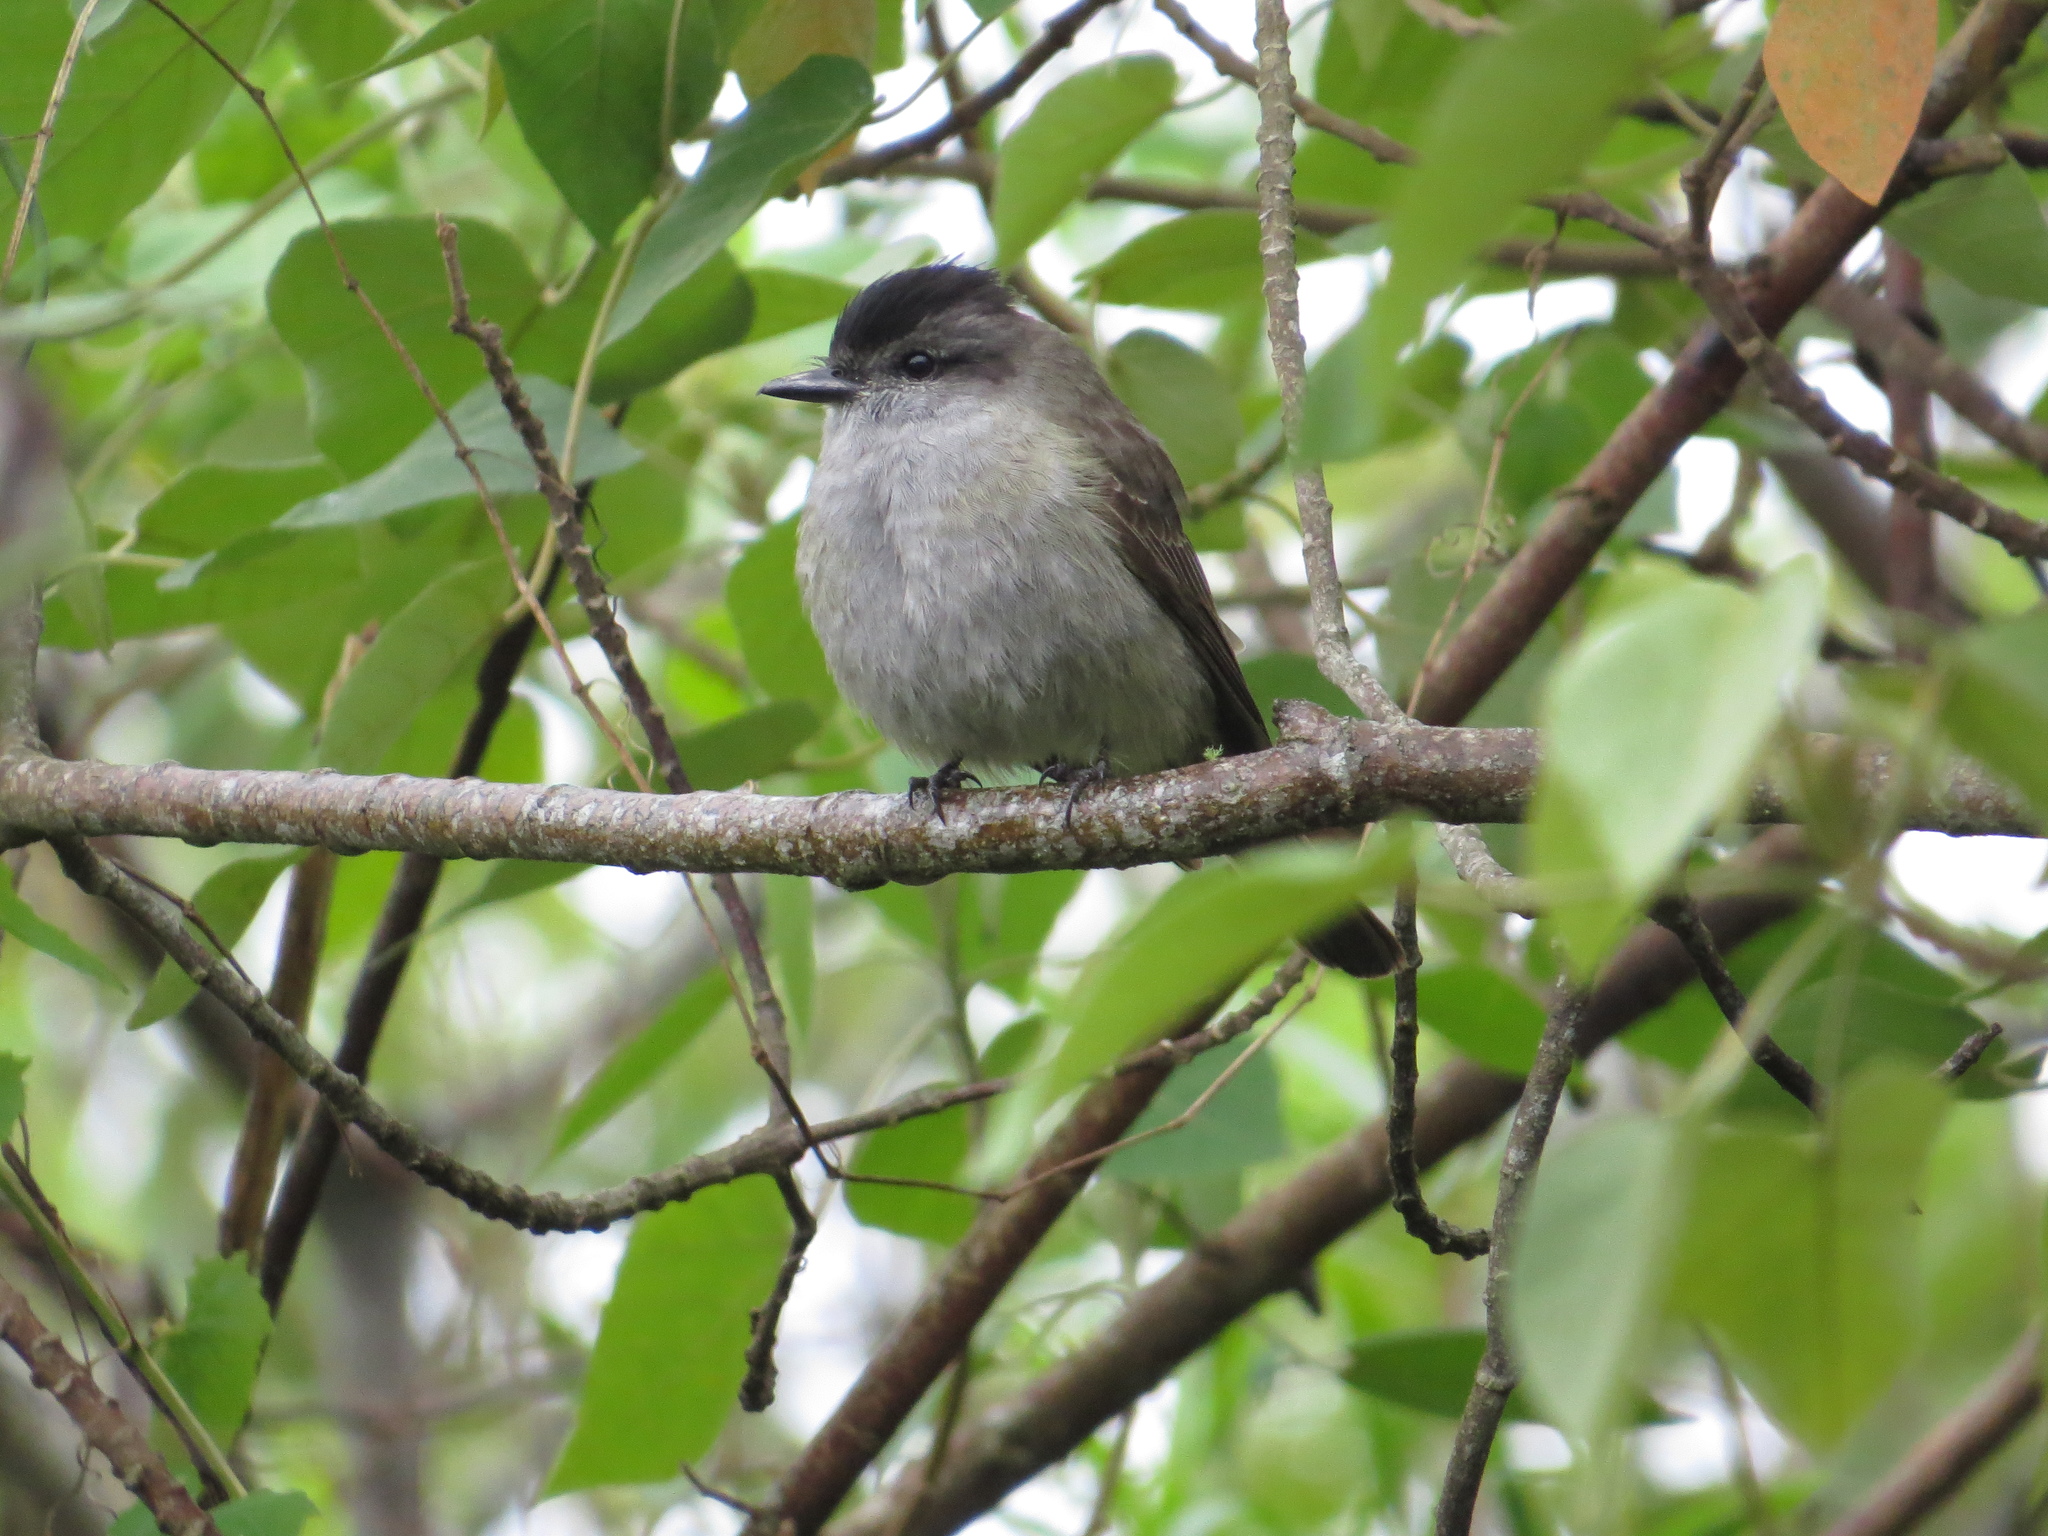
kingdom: Animalia
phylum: Chordata
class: Aves
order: Passeriformes
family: Tyrannidae
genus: Empidonomus
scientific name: Empidonomus aurantioatrocristatus
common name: Crowned slaty flycatcher
